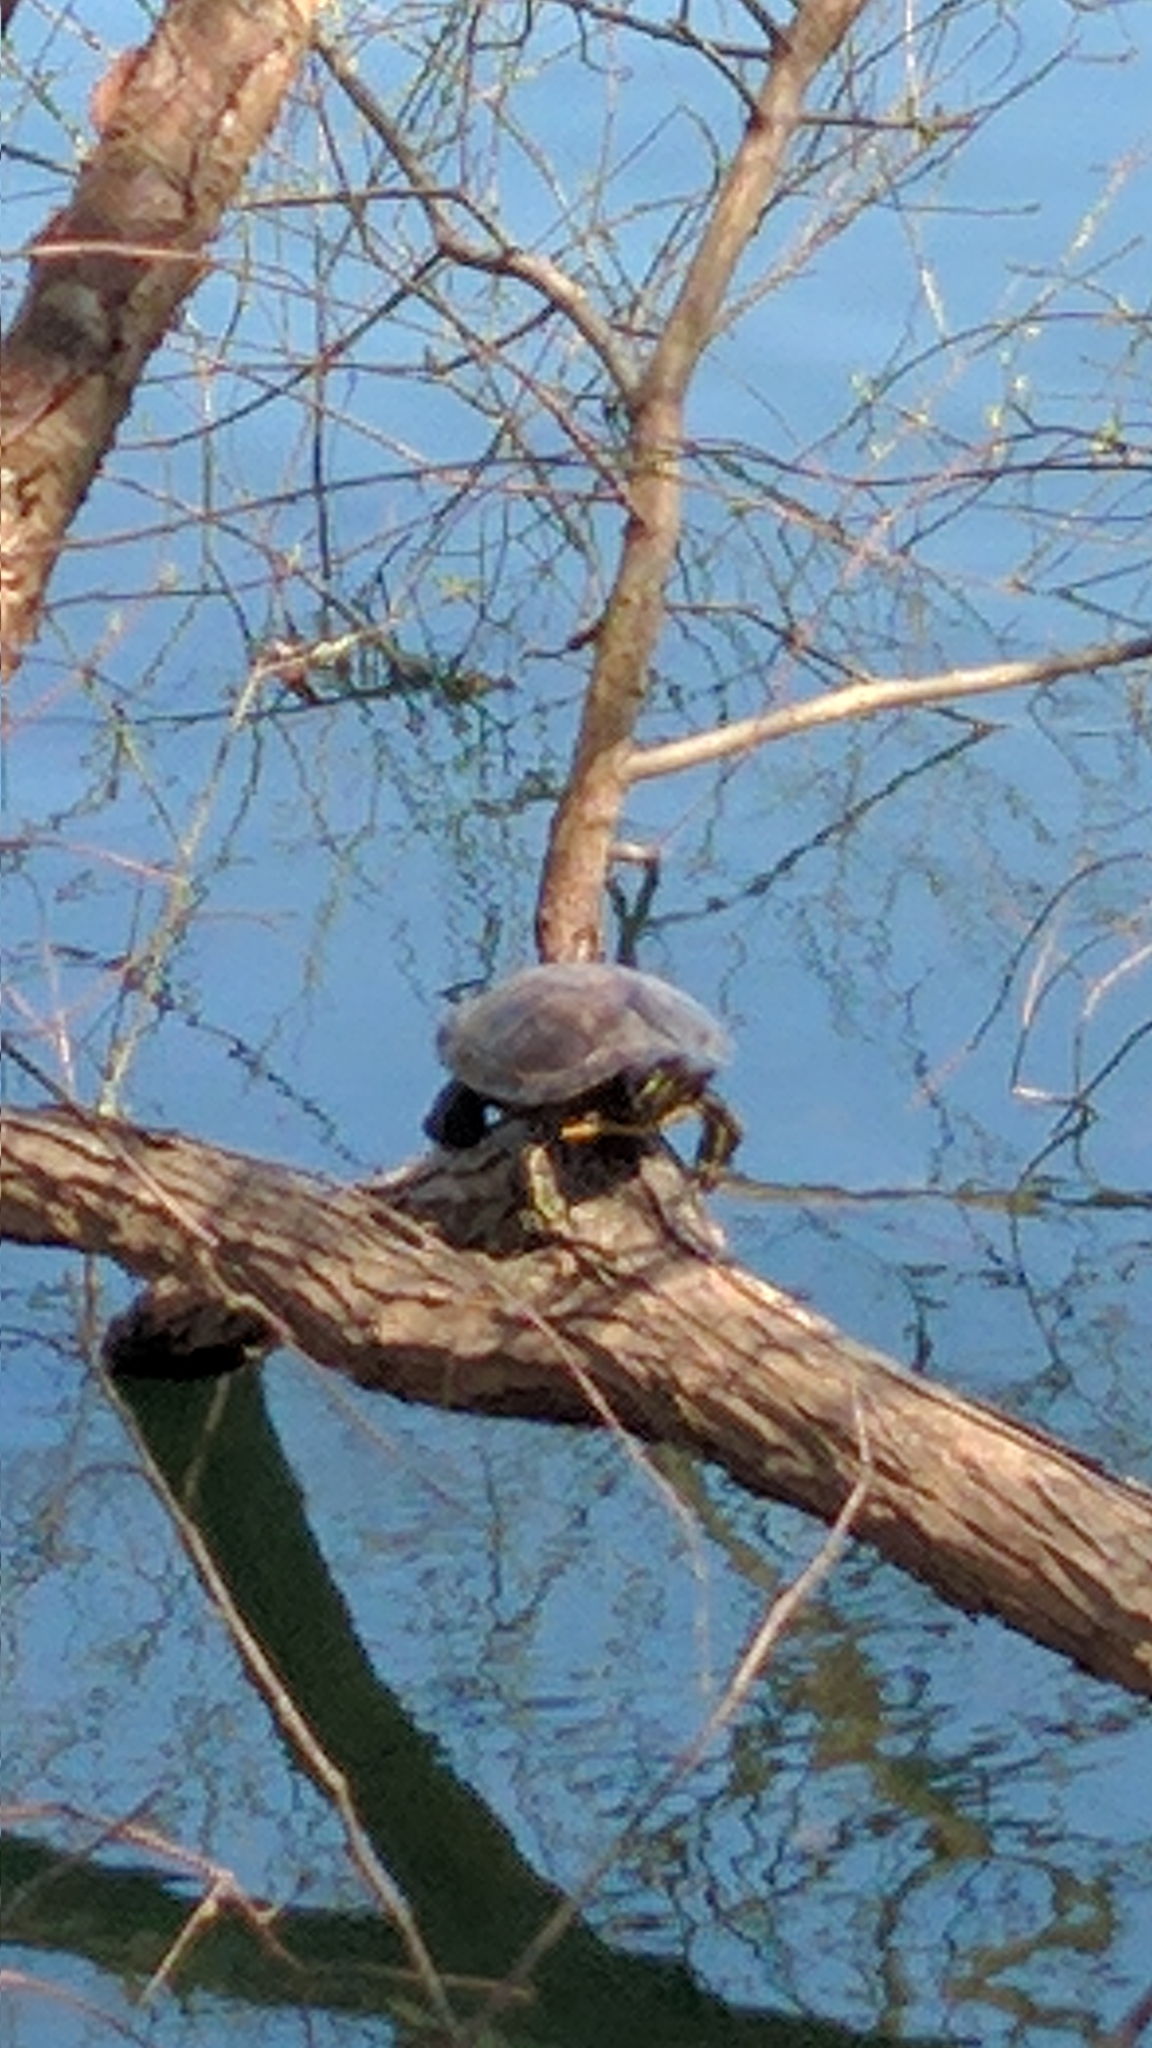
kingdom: Animalia
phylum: Chordata
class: Testudines
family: Emydidae
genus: Trachemys
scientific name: Trachemys scripta
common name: Slider
